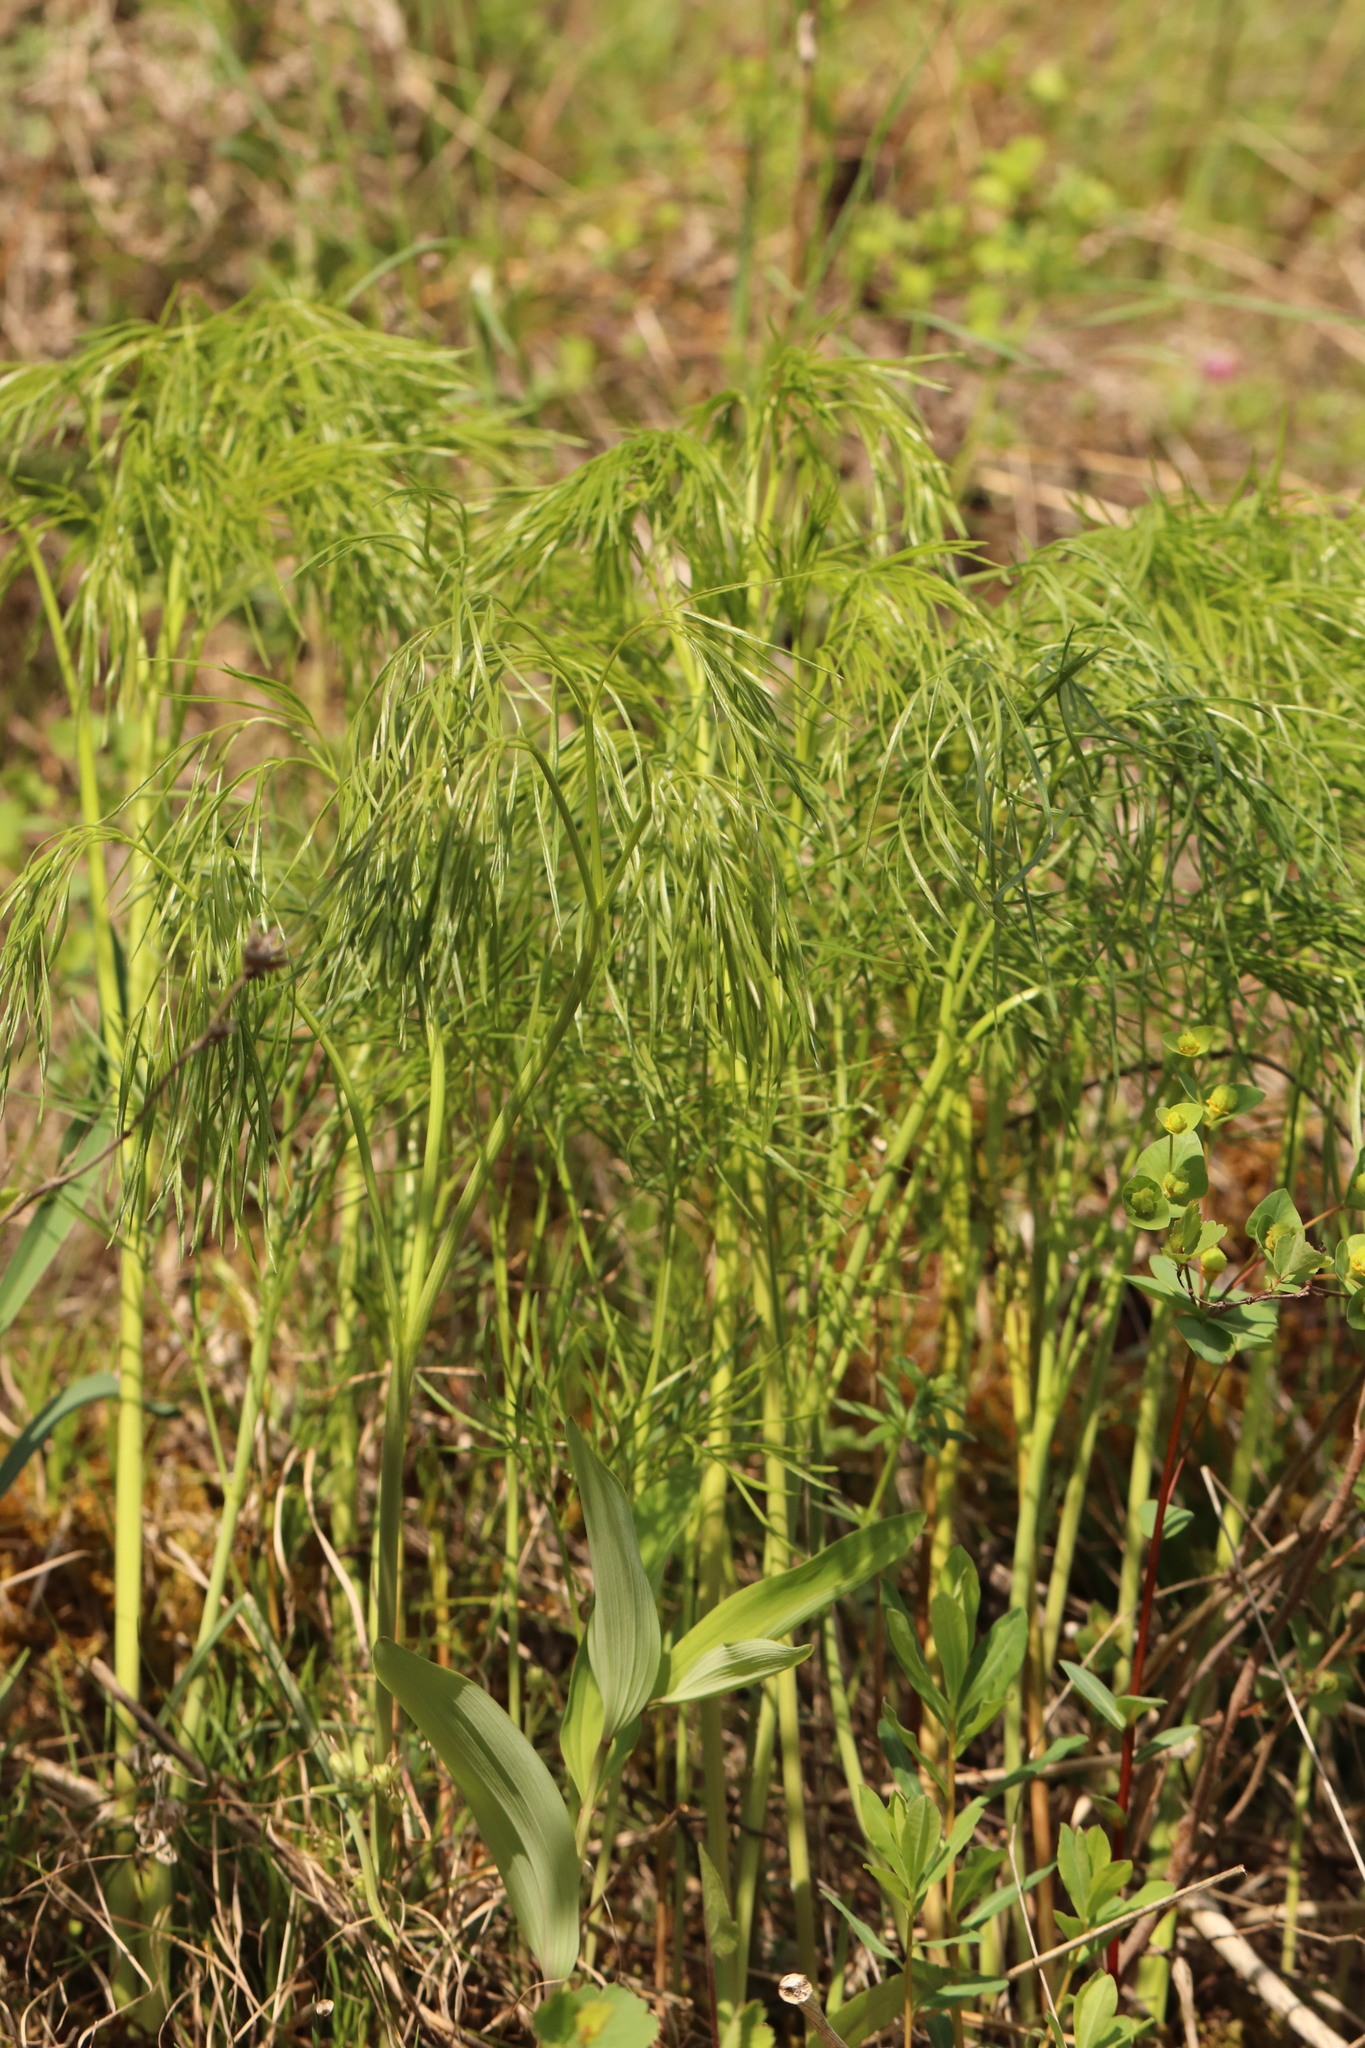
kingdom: Plantae
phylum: Tracheophyta
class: Magnoliopsida
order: Apiales
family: Apiaceae
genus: Peucedanum
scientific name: Peucedanum morisonii
